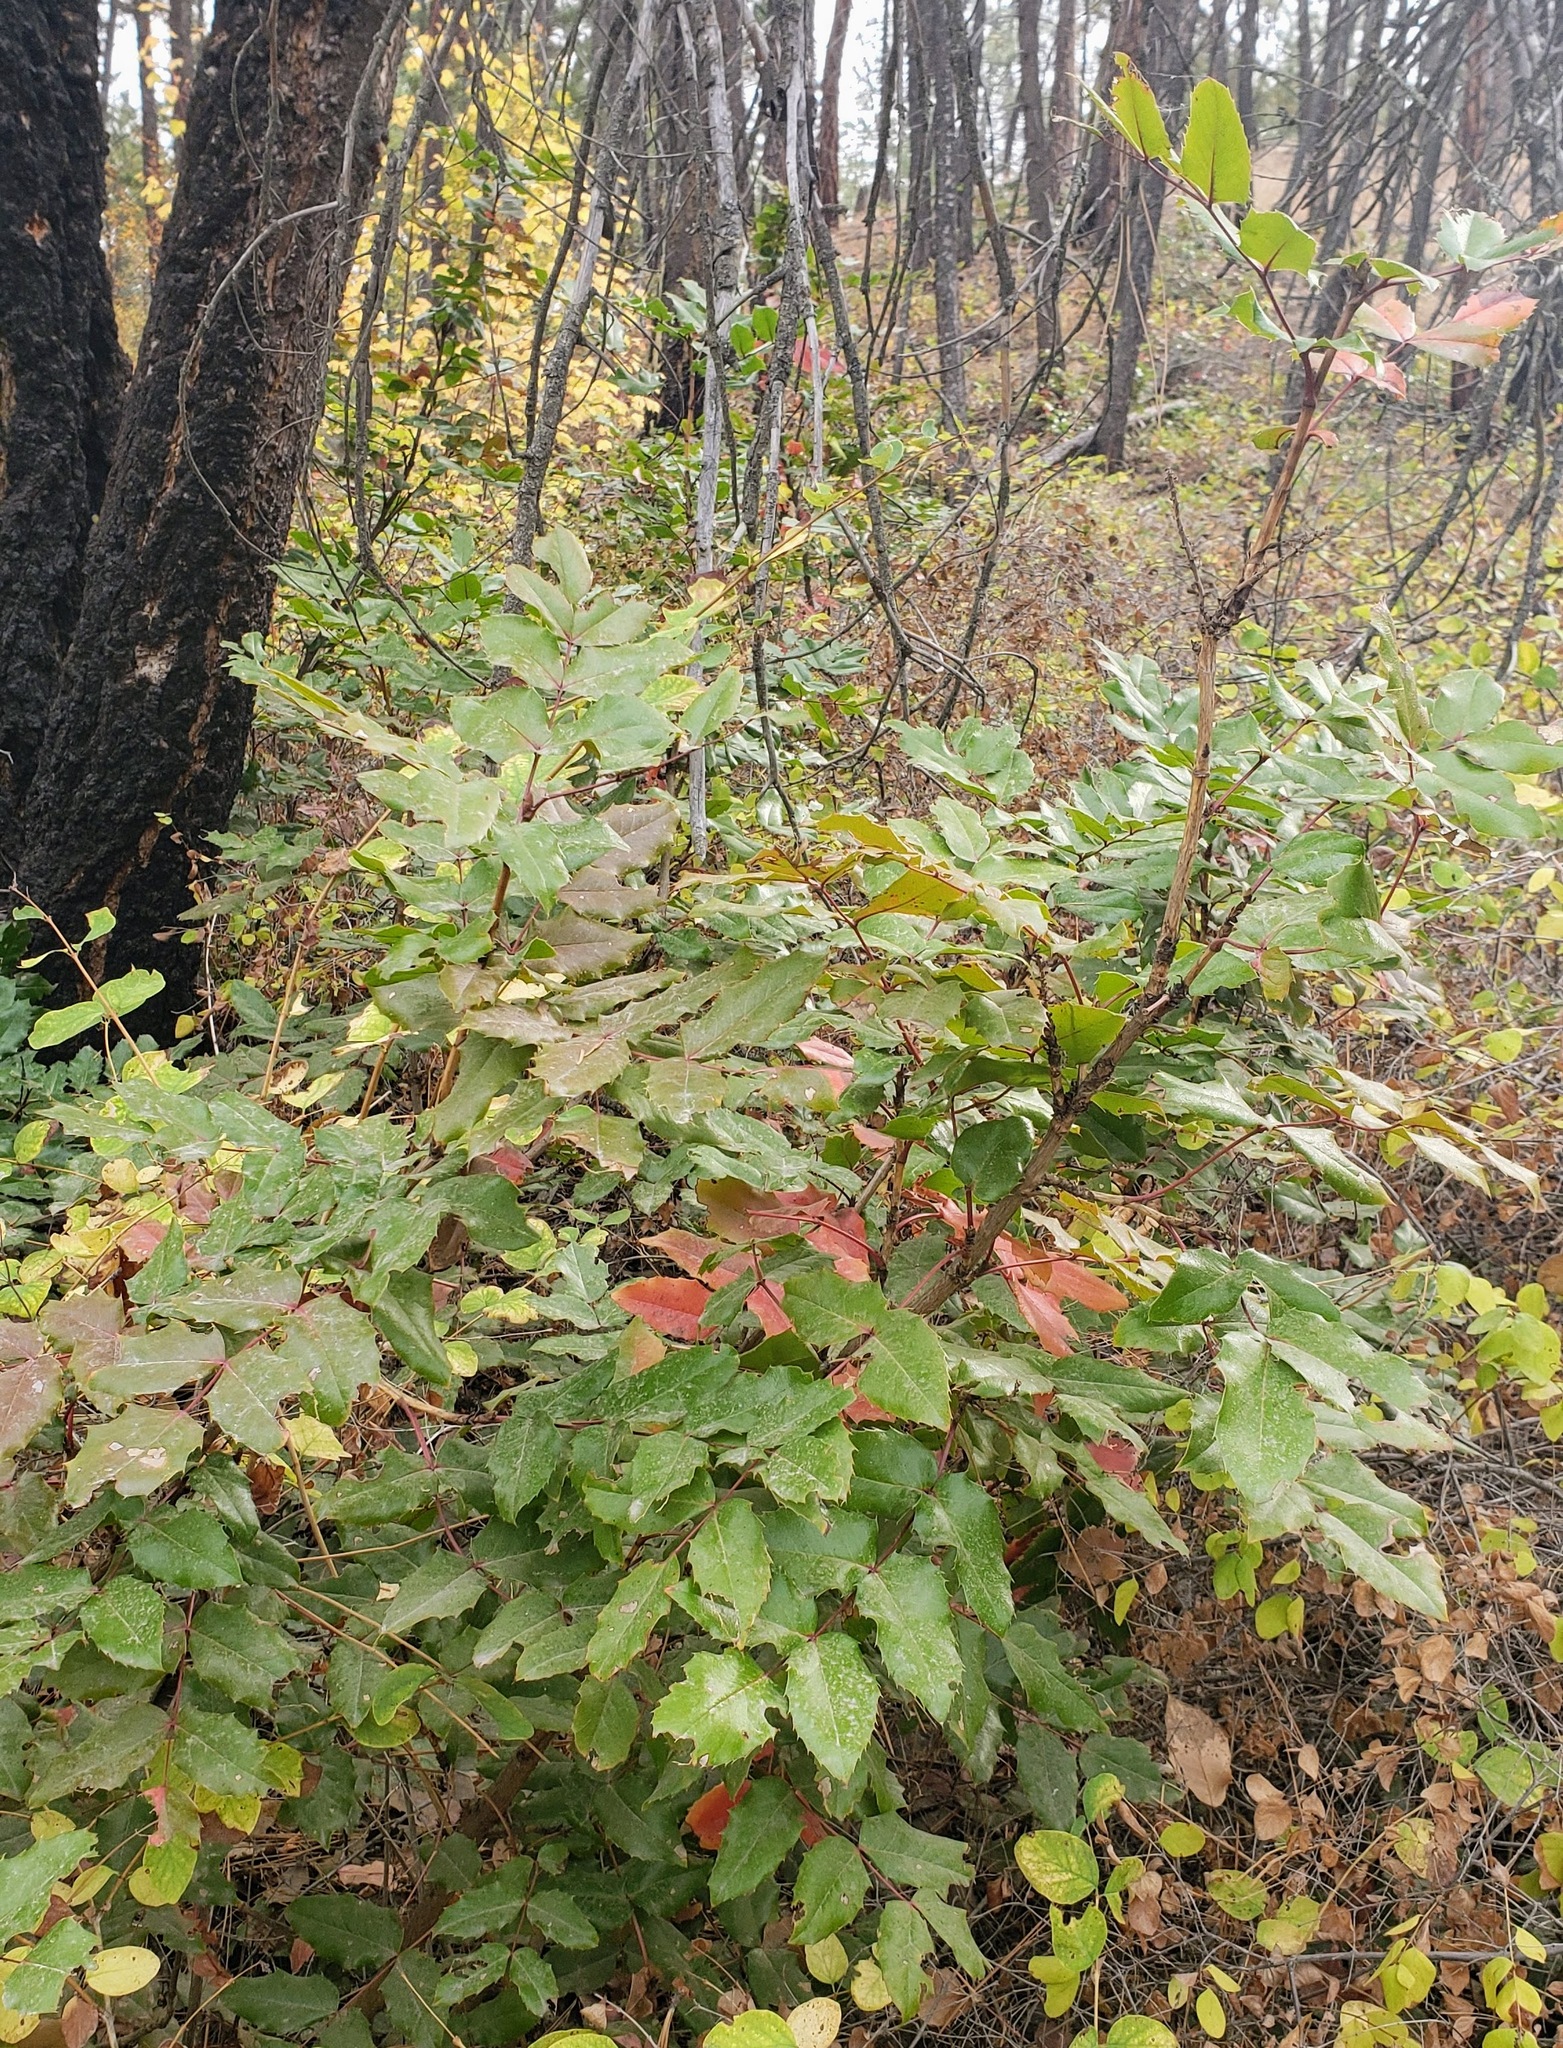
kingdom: Plantae
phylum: Tracheophyta
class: Magnoliopsida
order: Ranunculales
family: Berberidaceae
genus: Mahonia
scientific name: Mahonia aquifolium
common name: Oregon-grape
